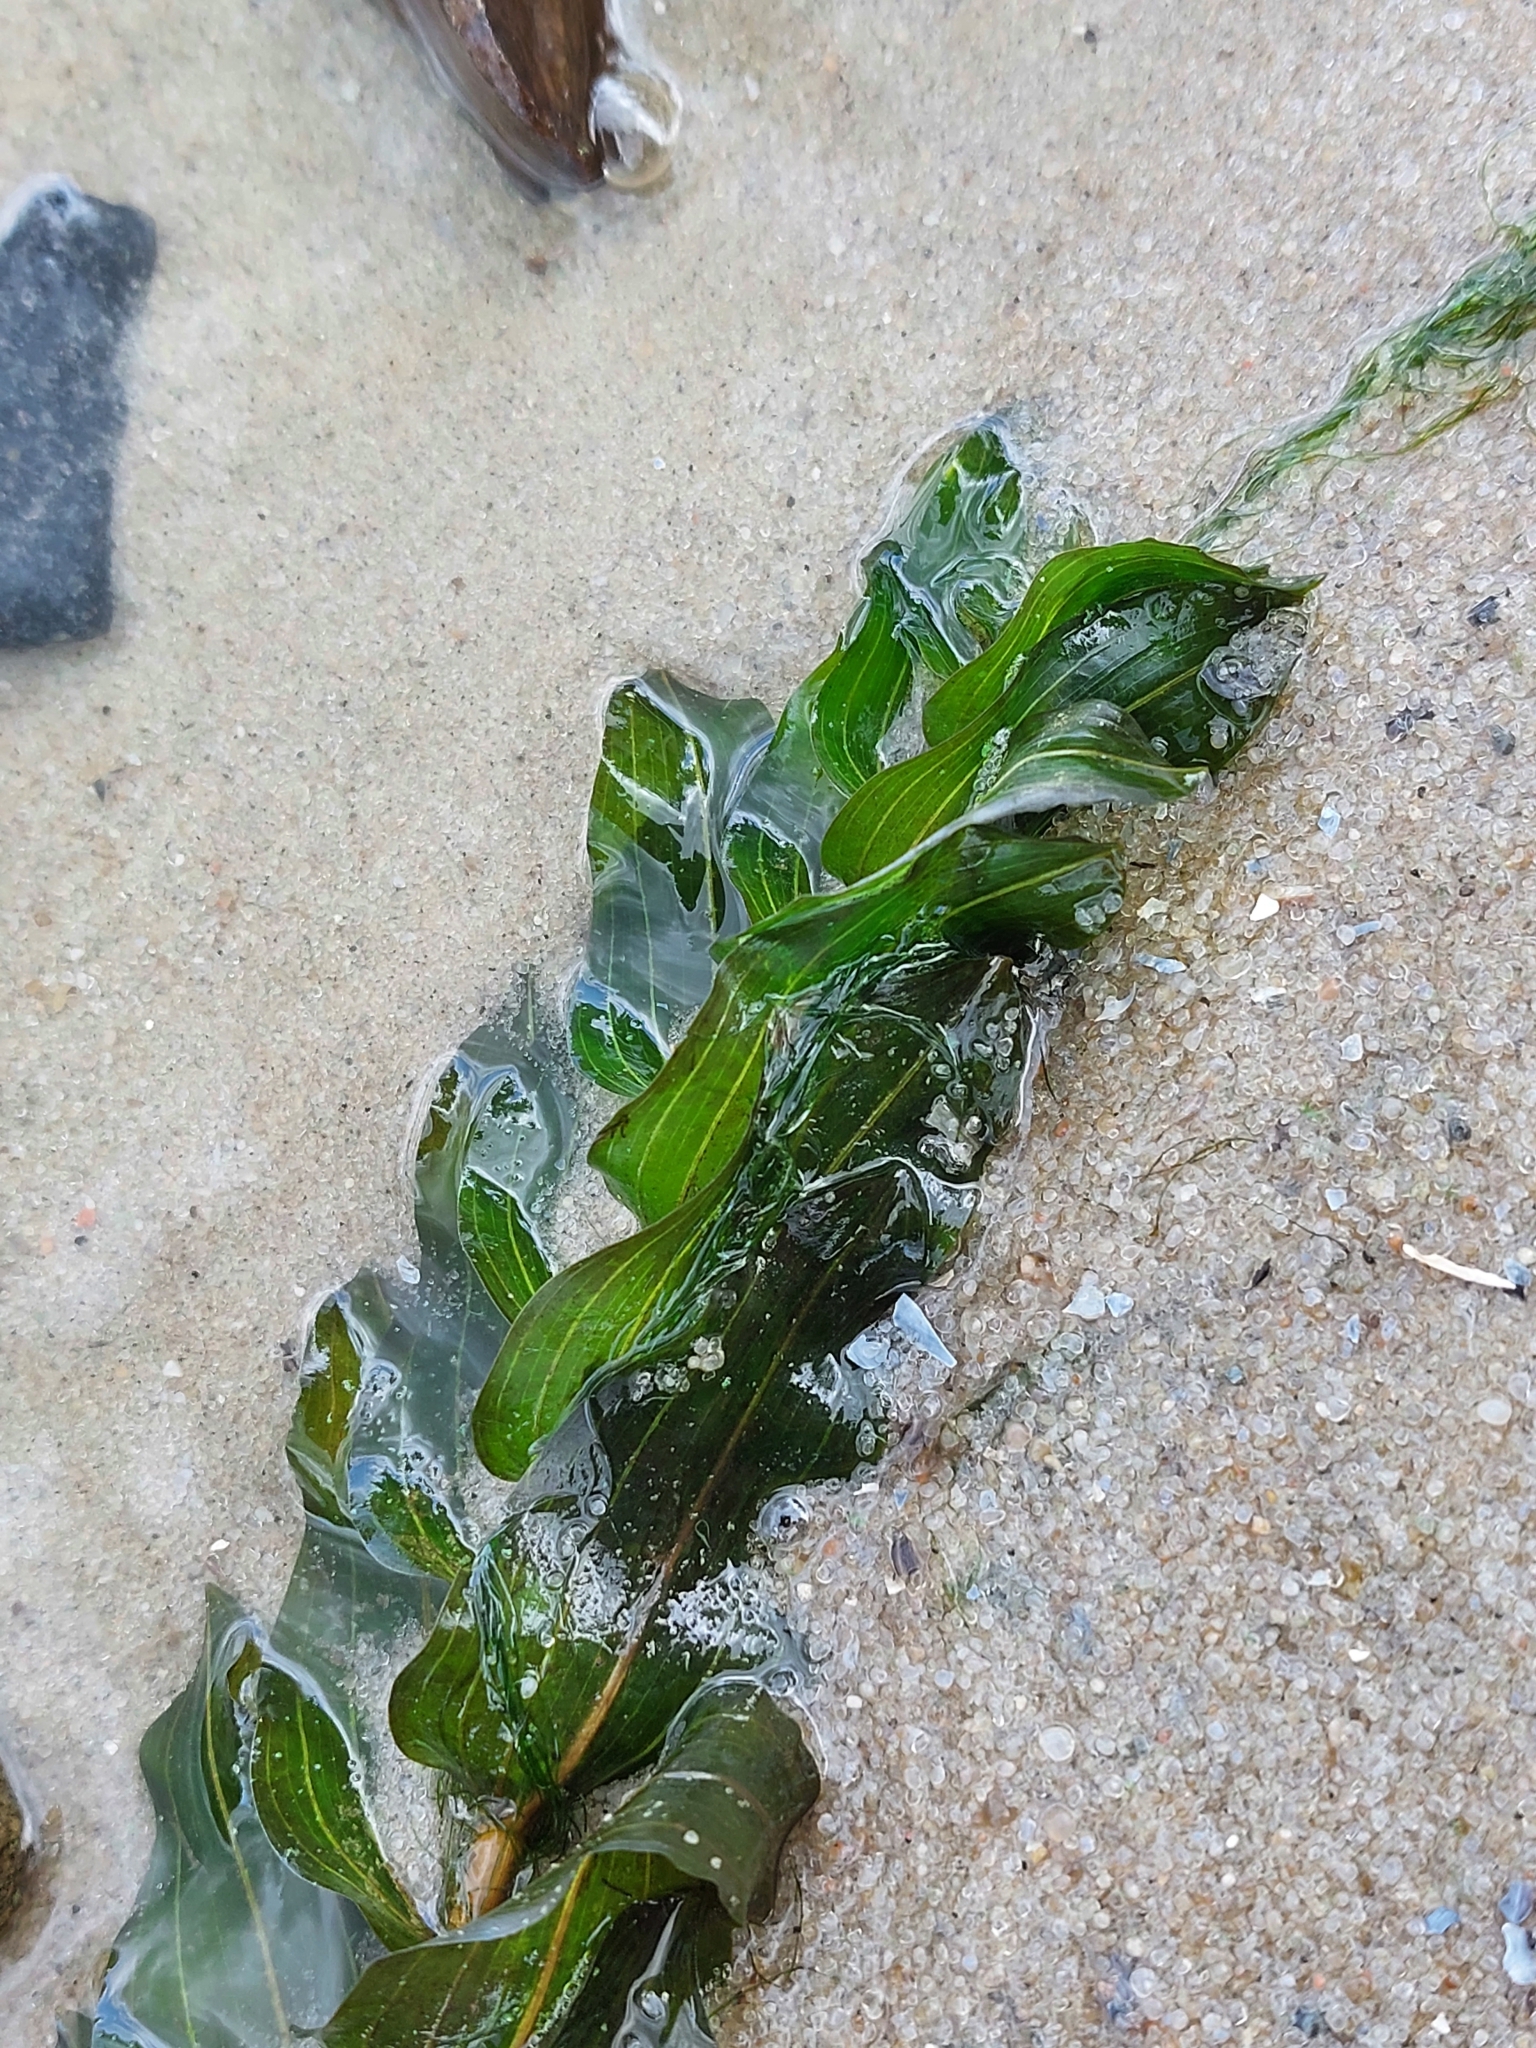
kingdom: Plantae
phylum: Tracheophyta
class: Liliopsida
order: Alismatales
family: Potamogetonaceae
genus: Potamogeton
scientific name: Potamogeton perfoliatus
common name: Perfoliate pondweed
